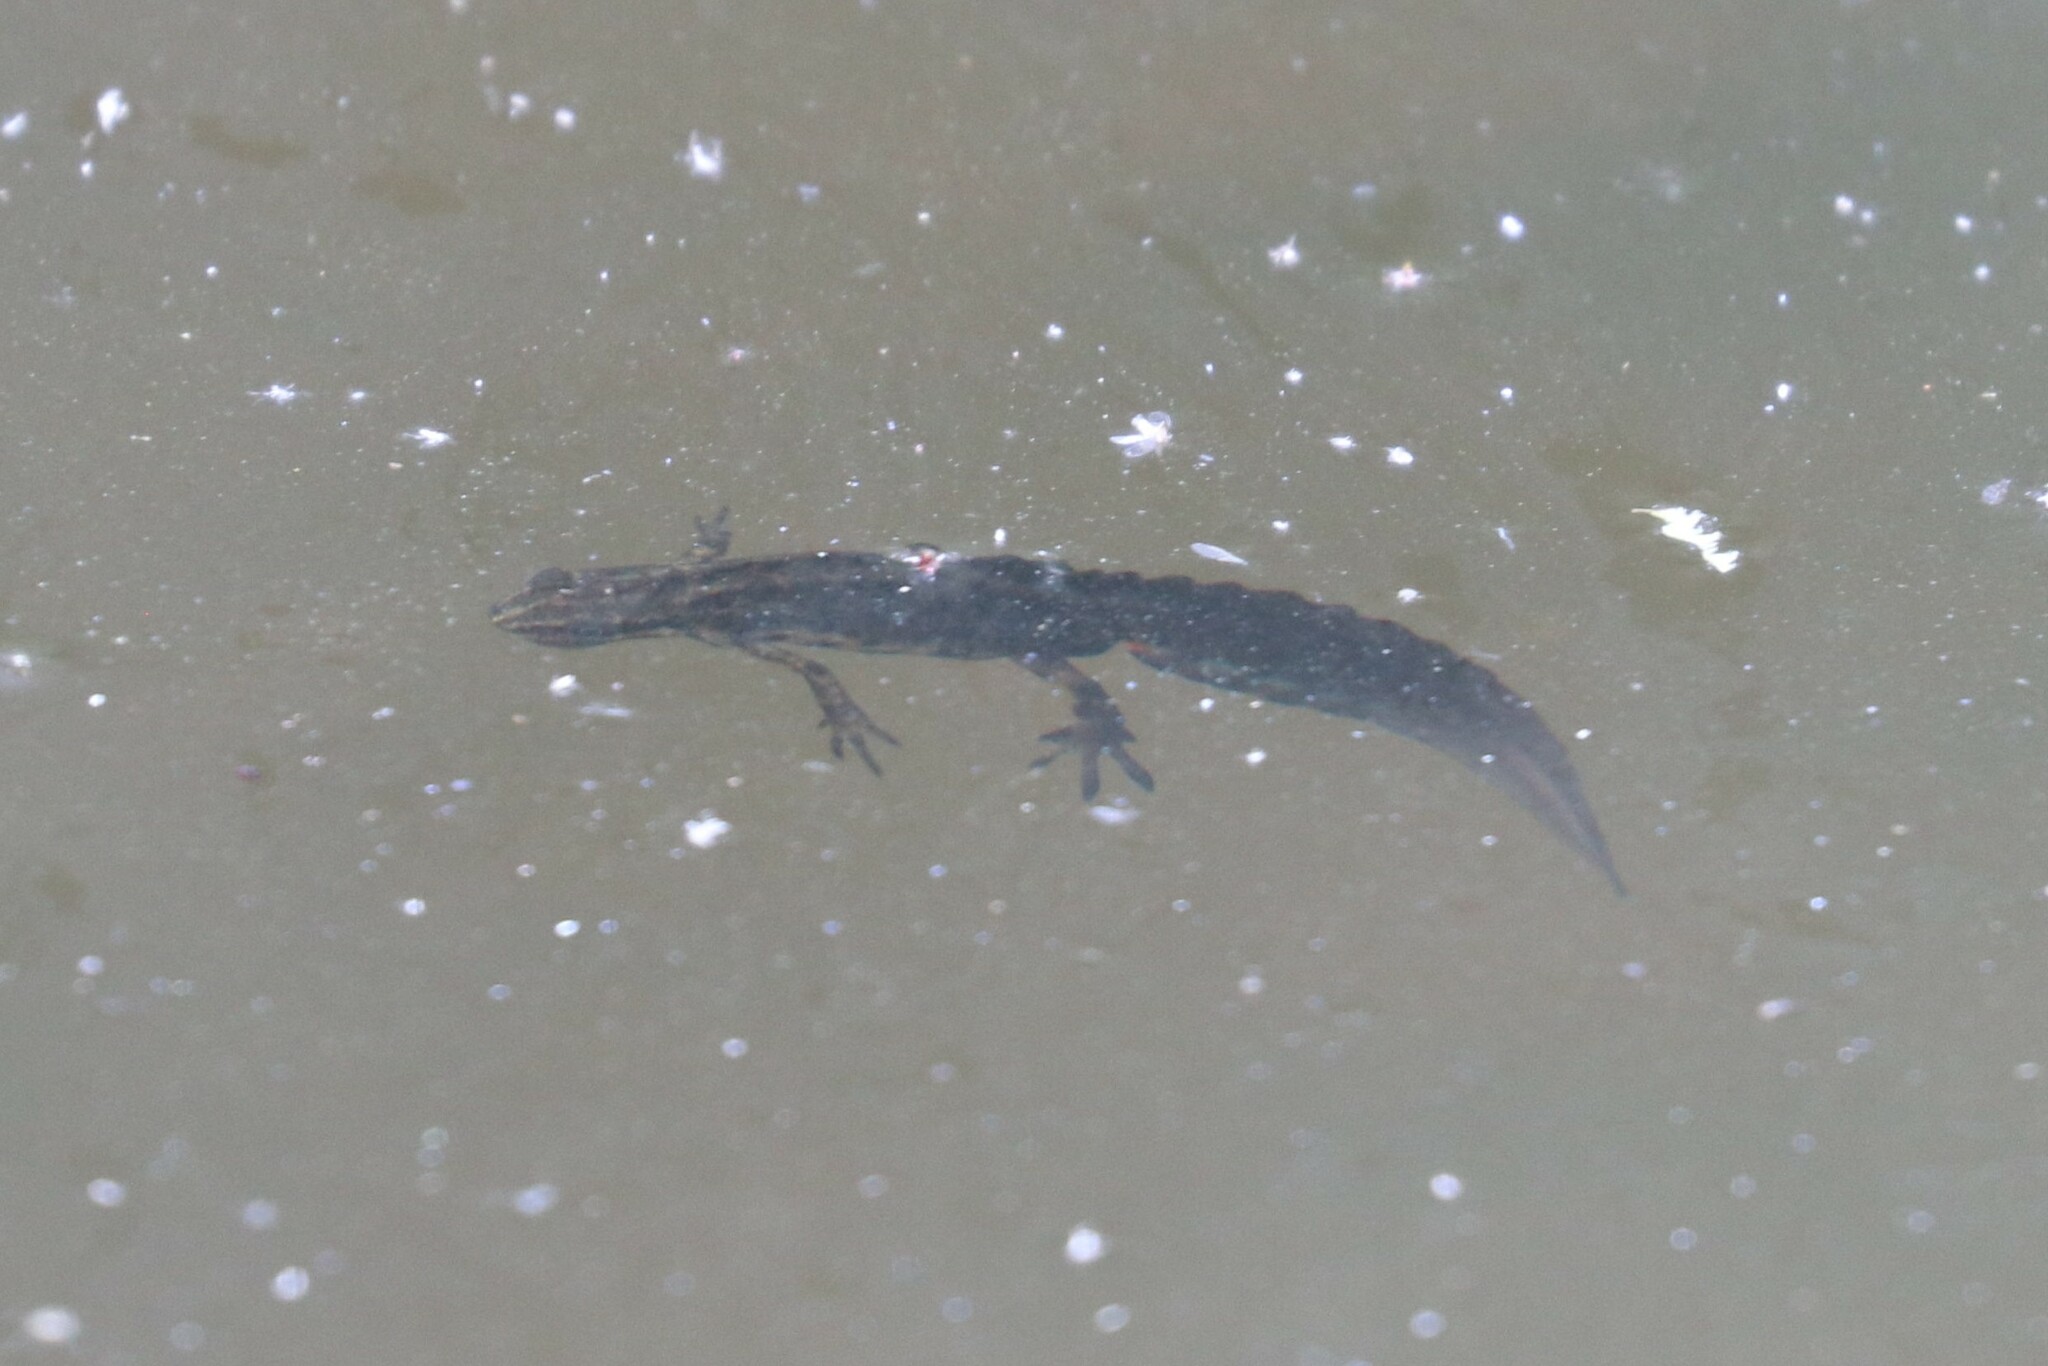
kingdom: Animalia
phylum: Chordata
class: Amphibia
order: Caudata
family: Salamandridae
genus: Lissotriton
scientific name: Lissotriton vulgaris
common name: Smooth newt
